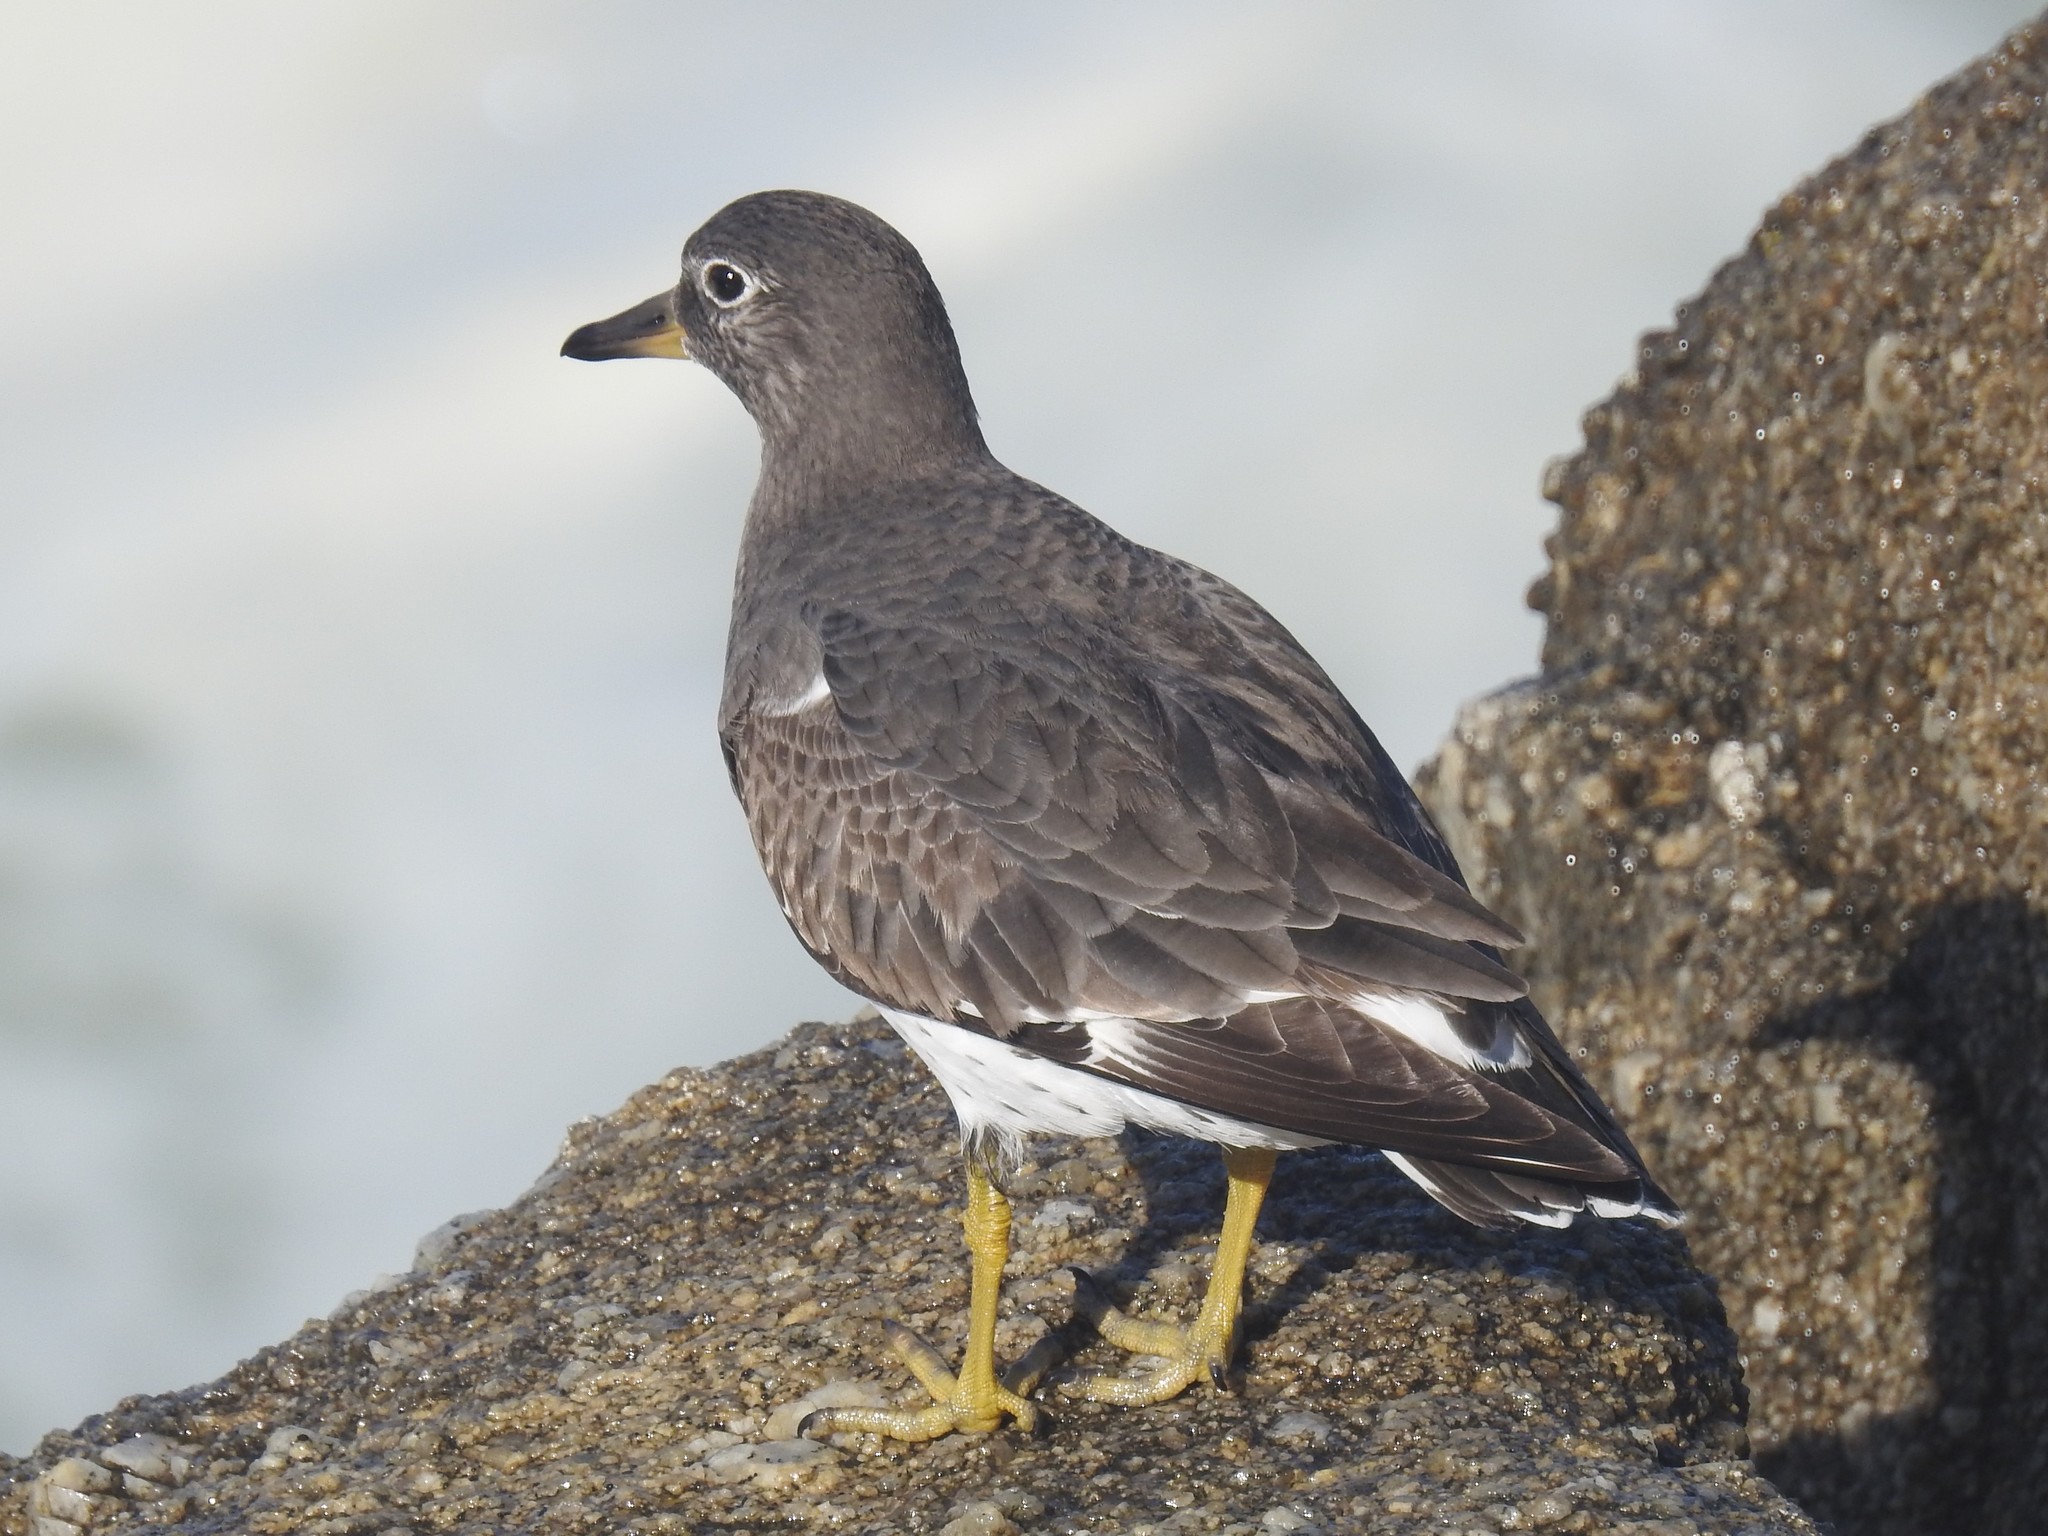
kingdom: Animalia
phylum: Chordata
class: Aves
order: Charadriiformes
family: Scolopacidae
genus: Calidris
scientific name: Calidris virgata
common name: Surfbird
